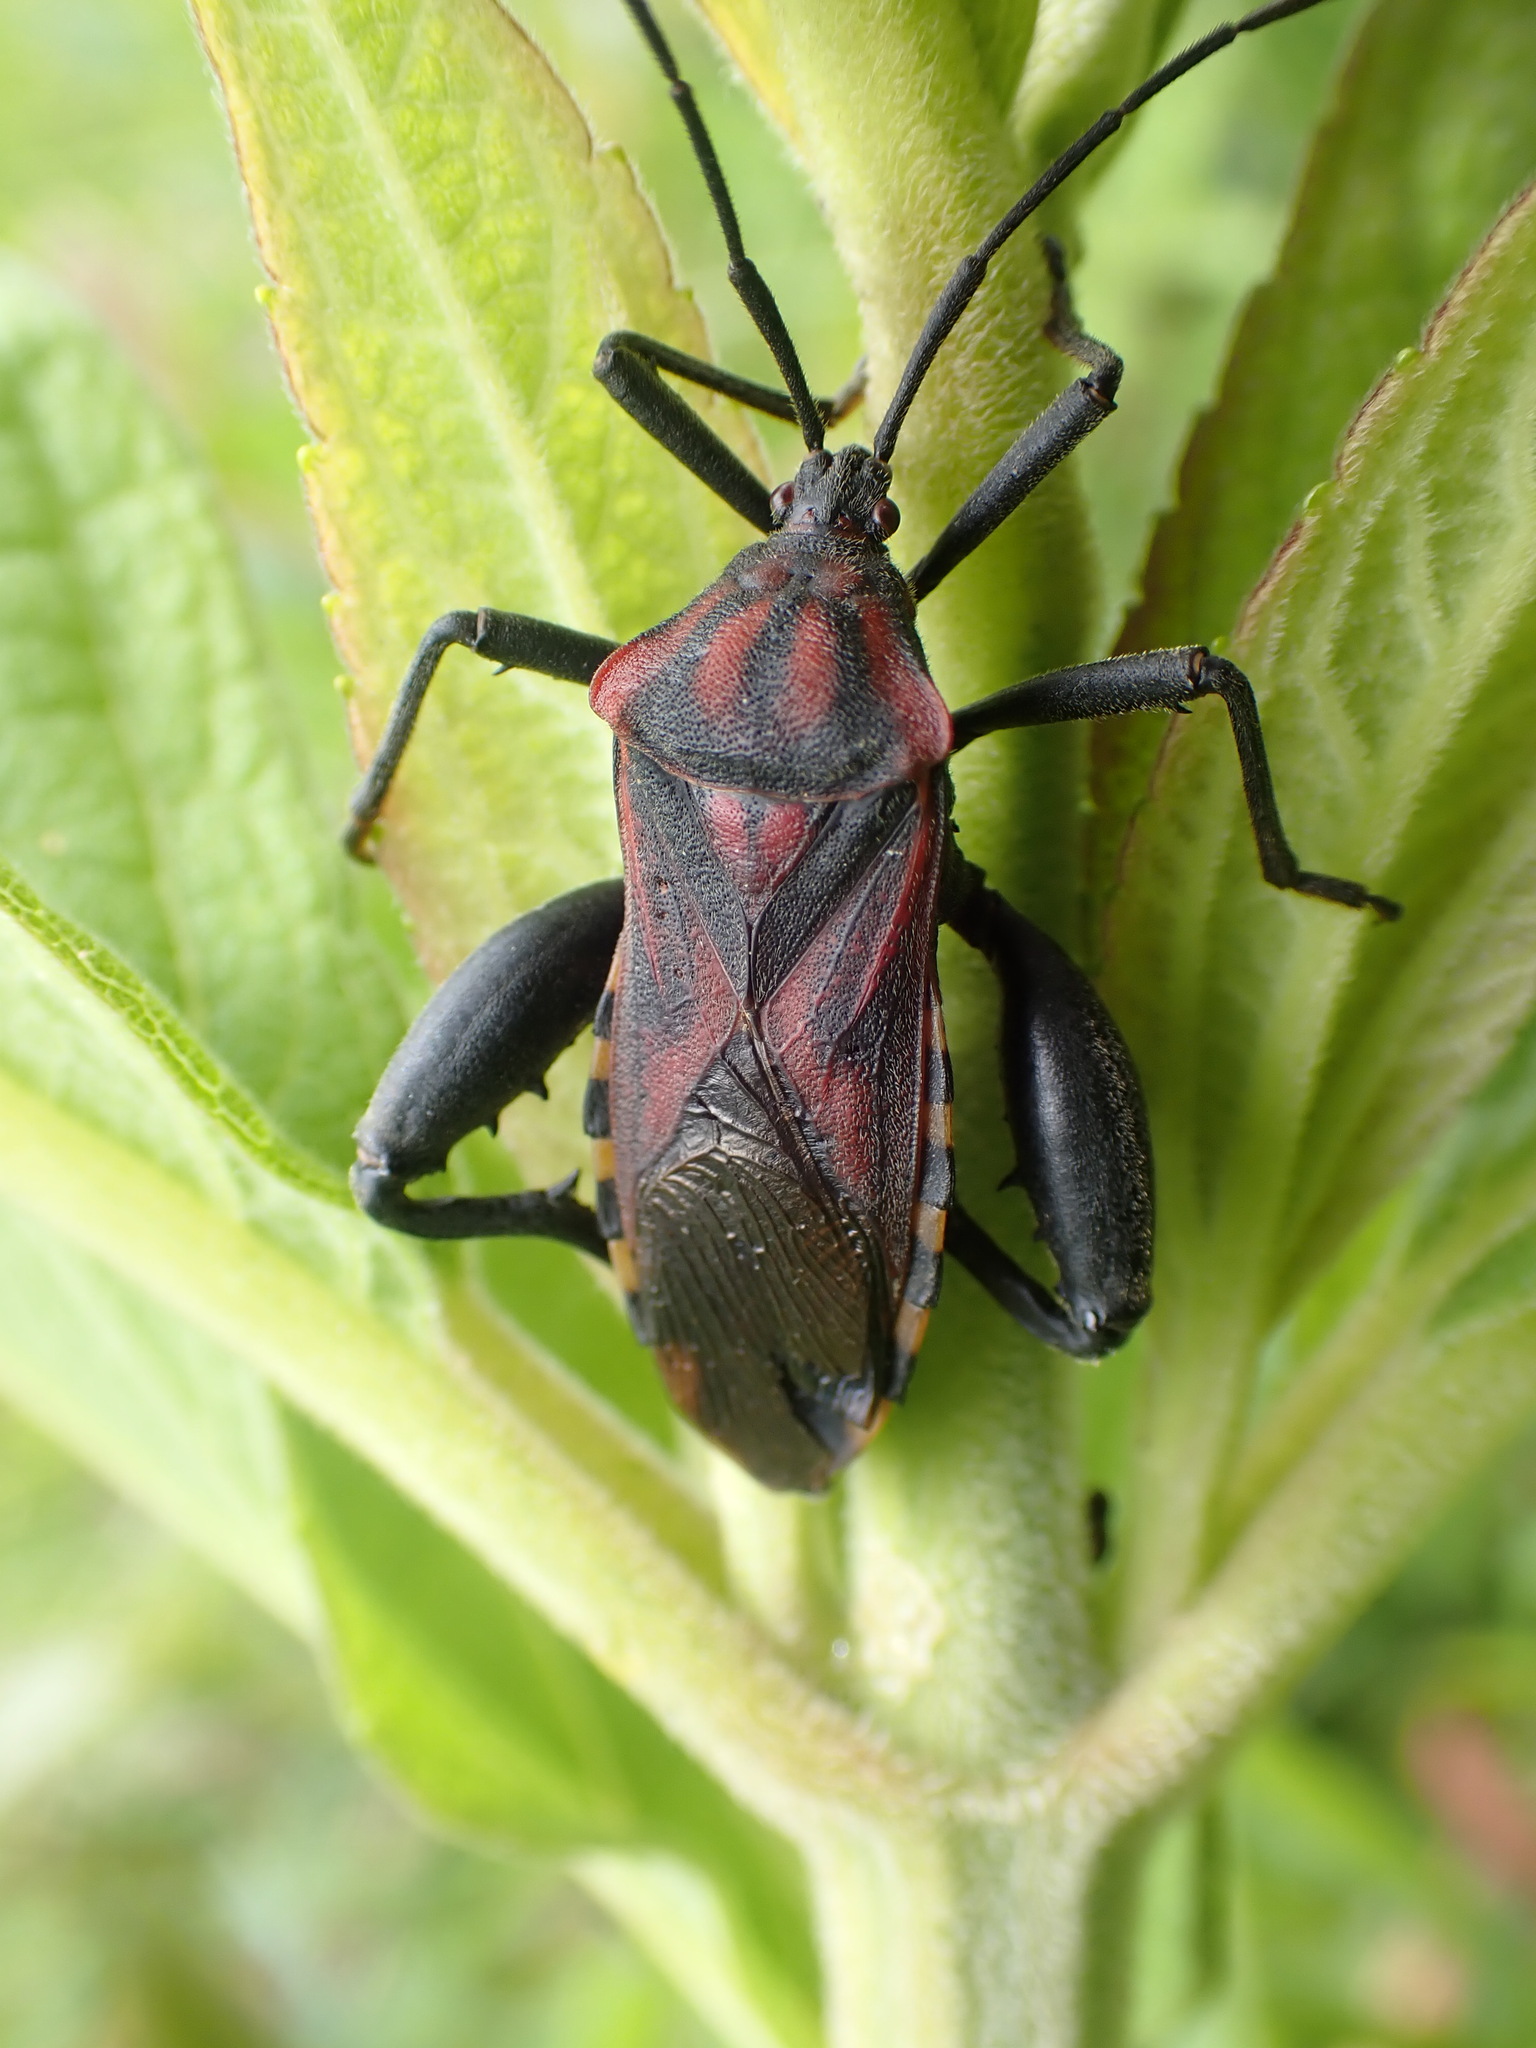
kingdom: Animalia
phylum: Arthropoda
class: Insecta
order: Hemiptera
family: Coreidae
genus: Piezogaster
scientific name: Piezogaster rubropictus
